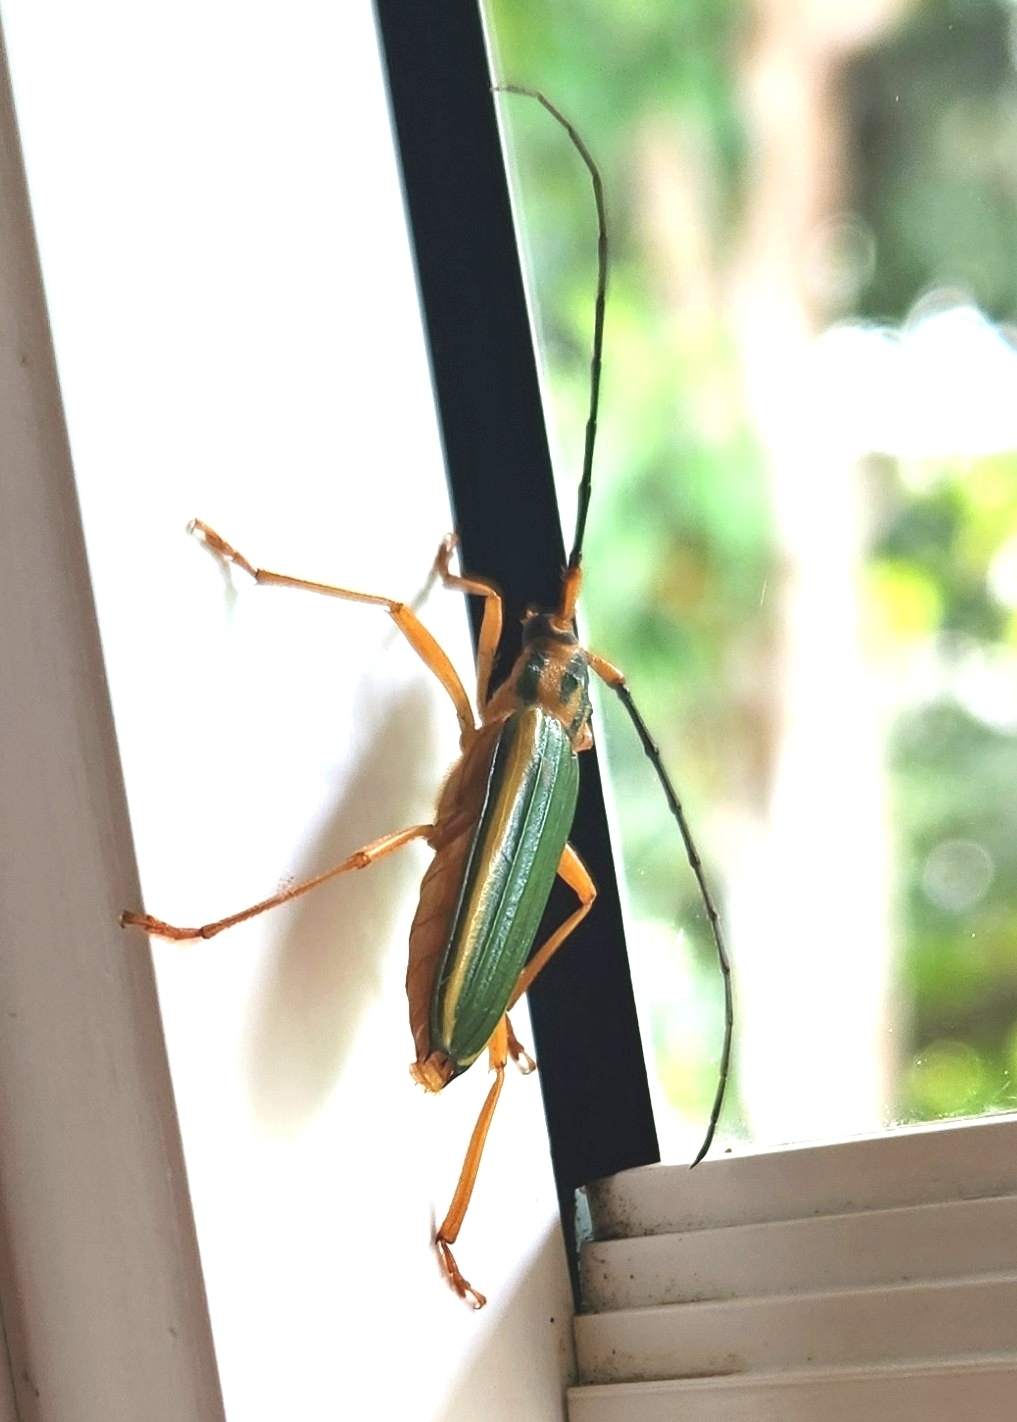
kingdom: Animalia
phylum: Arthropoda
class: Insecta
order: Coleoptera
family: Cerambycidae
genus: Chlorida
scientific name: Chlorida festiva
